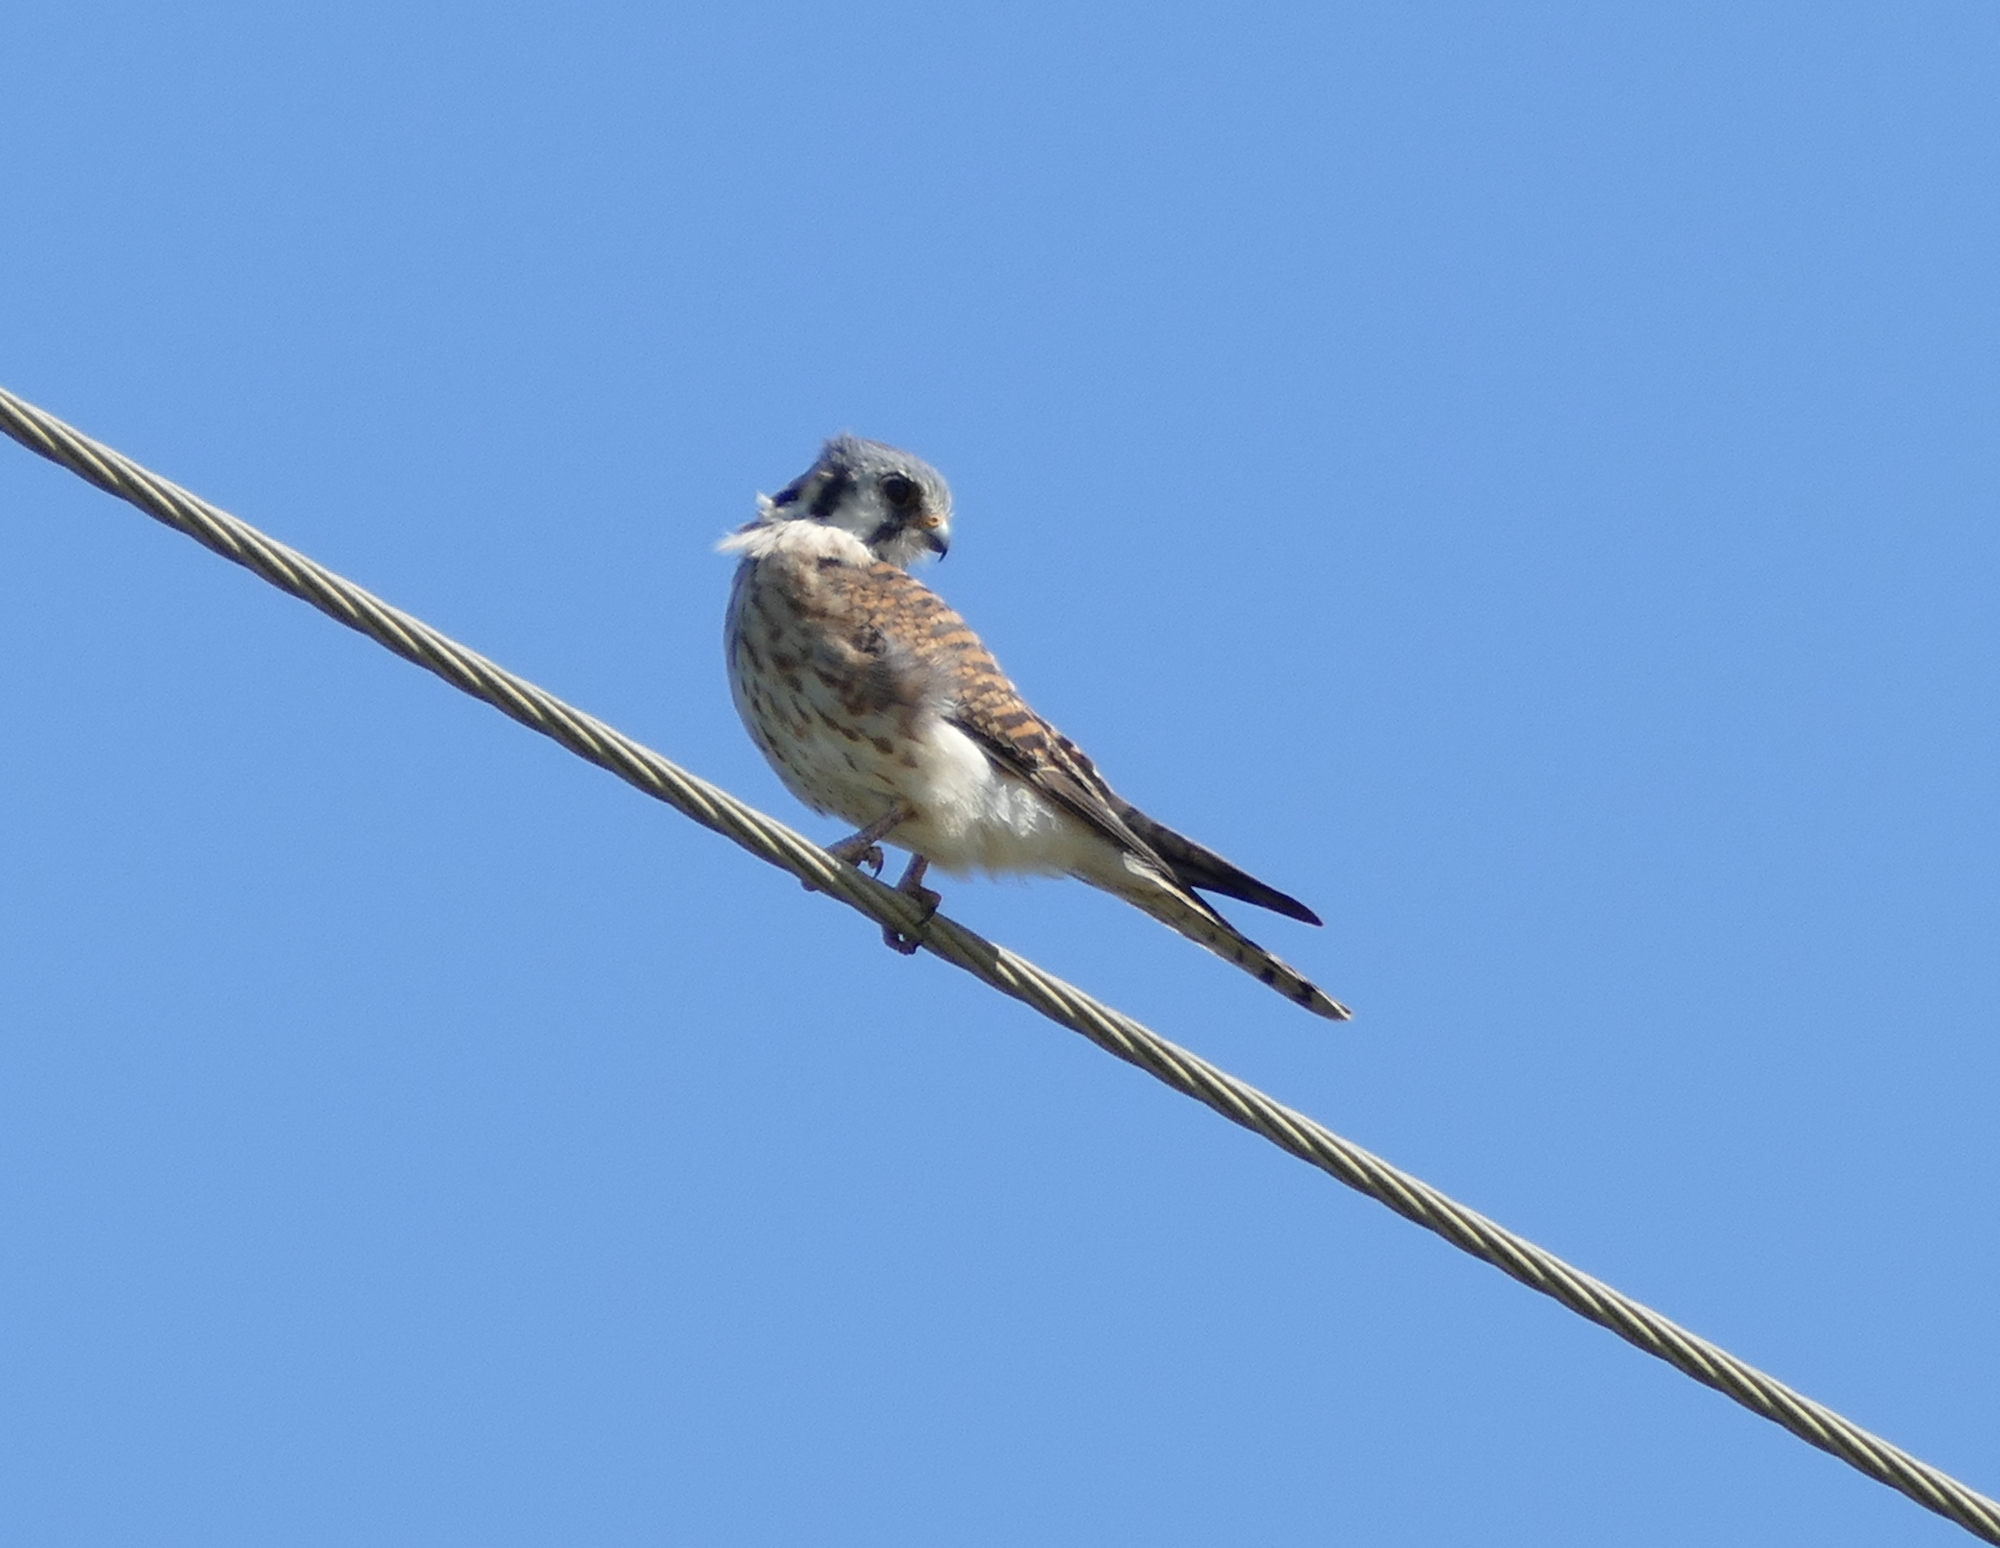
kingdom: Animalia
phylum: Chordata
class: Aves
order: Falconiformes
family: Falconidae
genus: Falco
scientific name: Falco sparverius
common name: American kestrel
